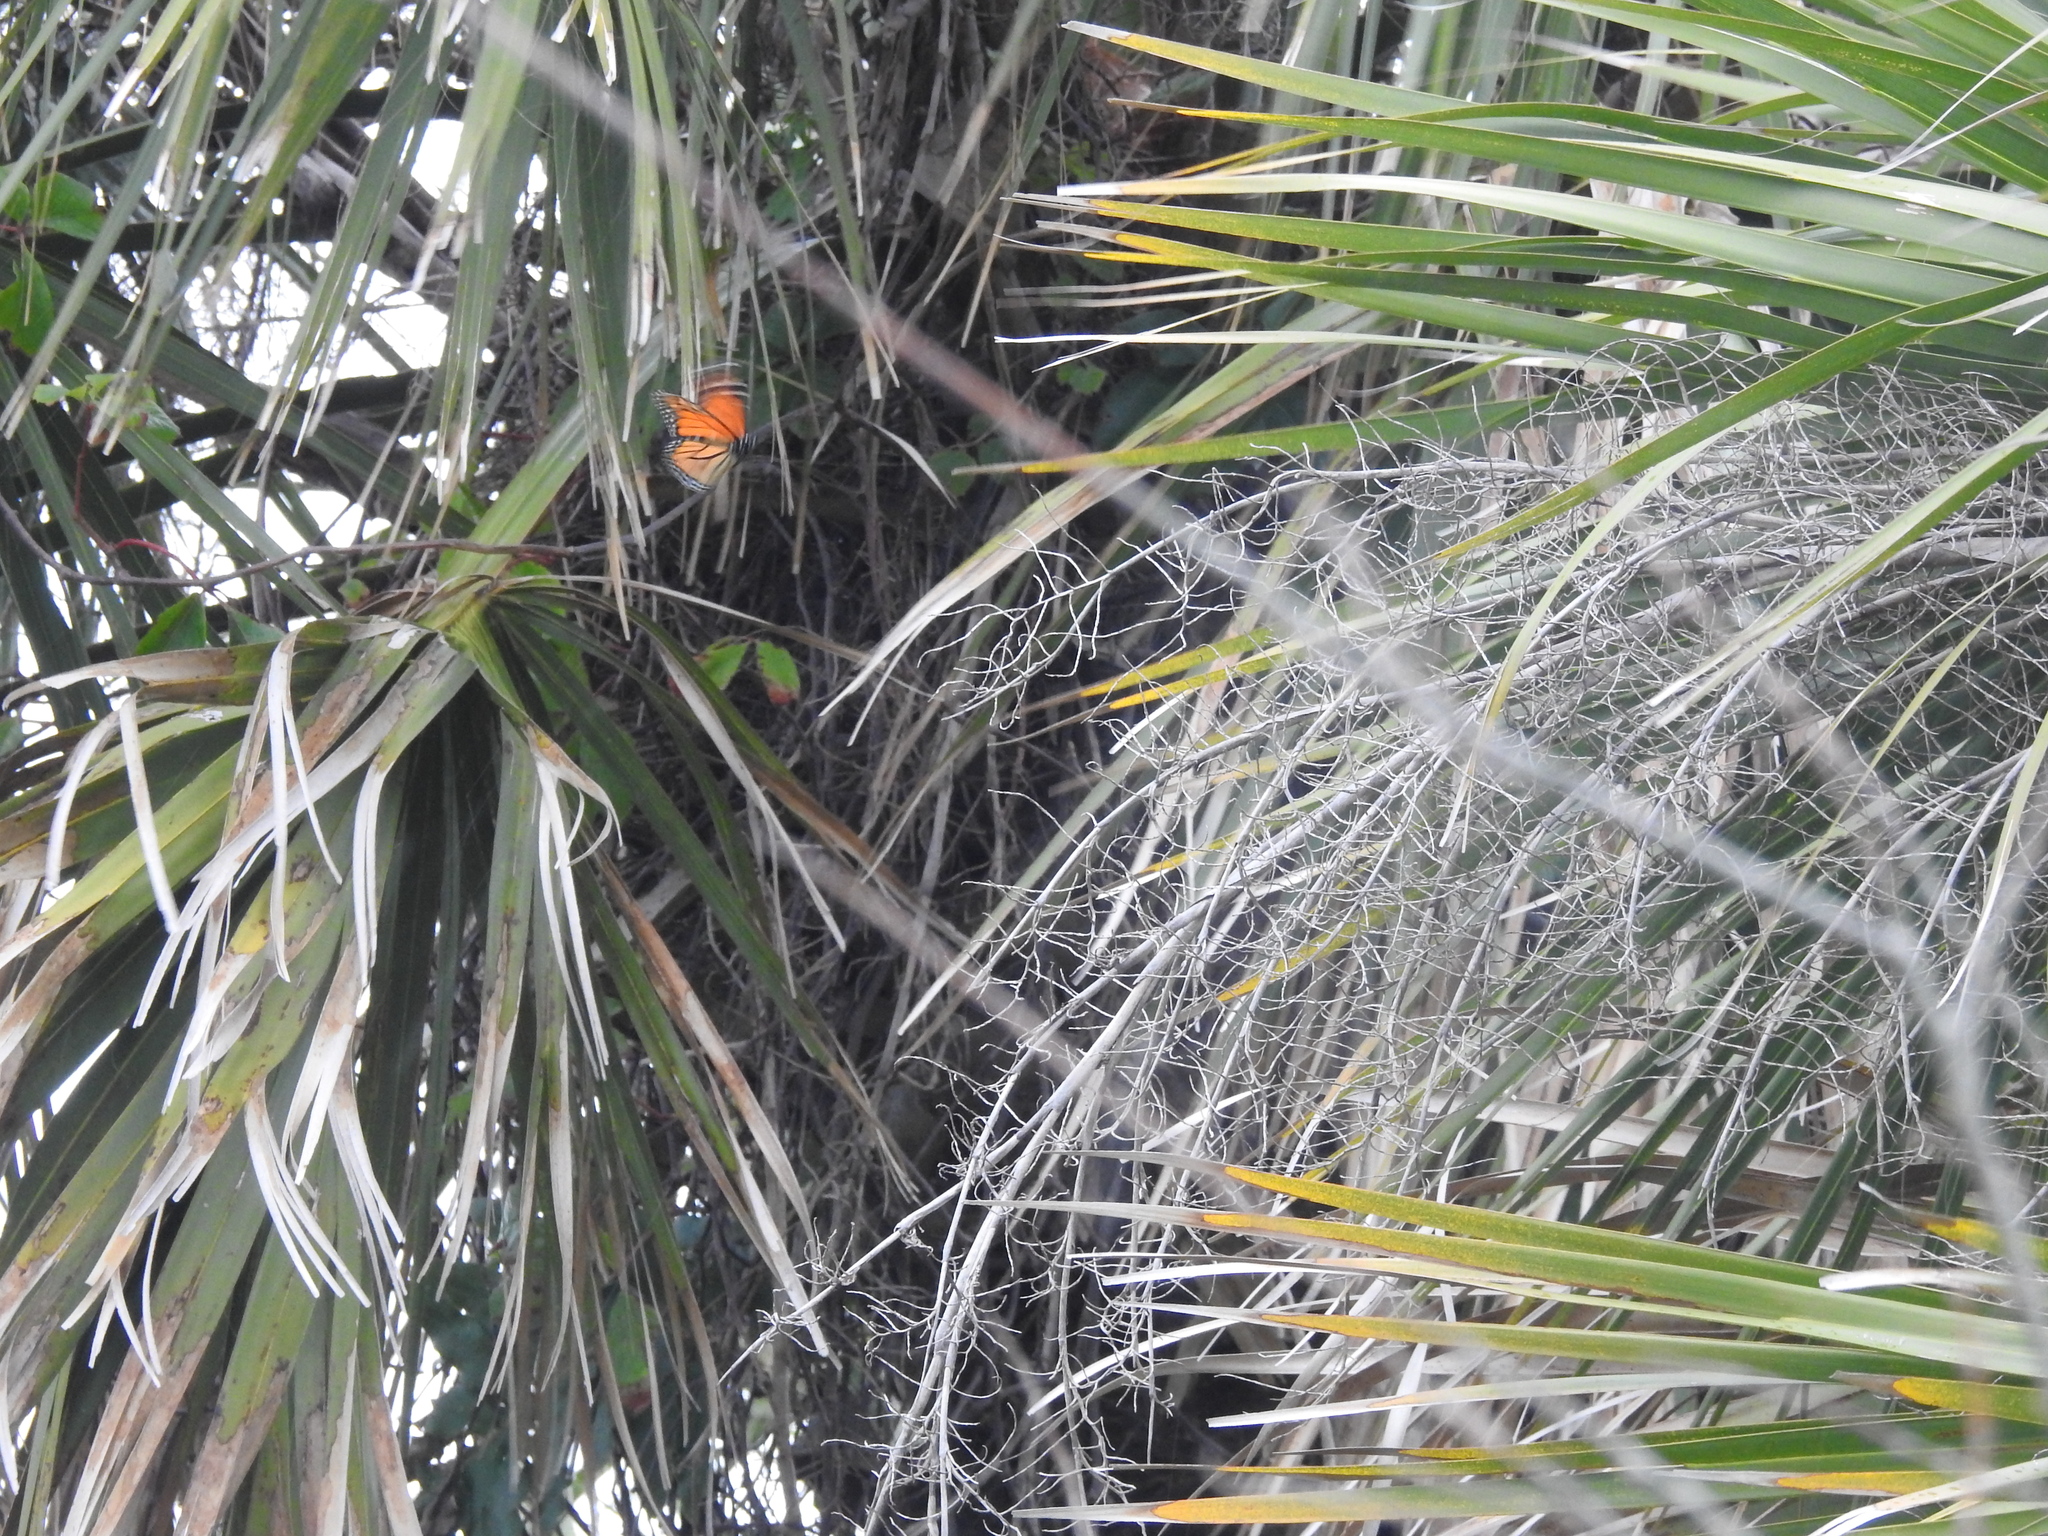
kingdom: Animalia
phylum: Arthropoda
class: Insecta
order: Lepidoptera
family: Nymphalidae
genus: Danaus
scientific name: Danaus plexippus
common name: Monarch
